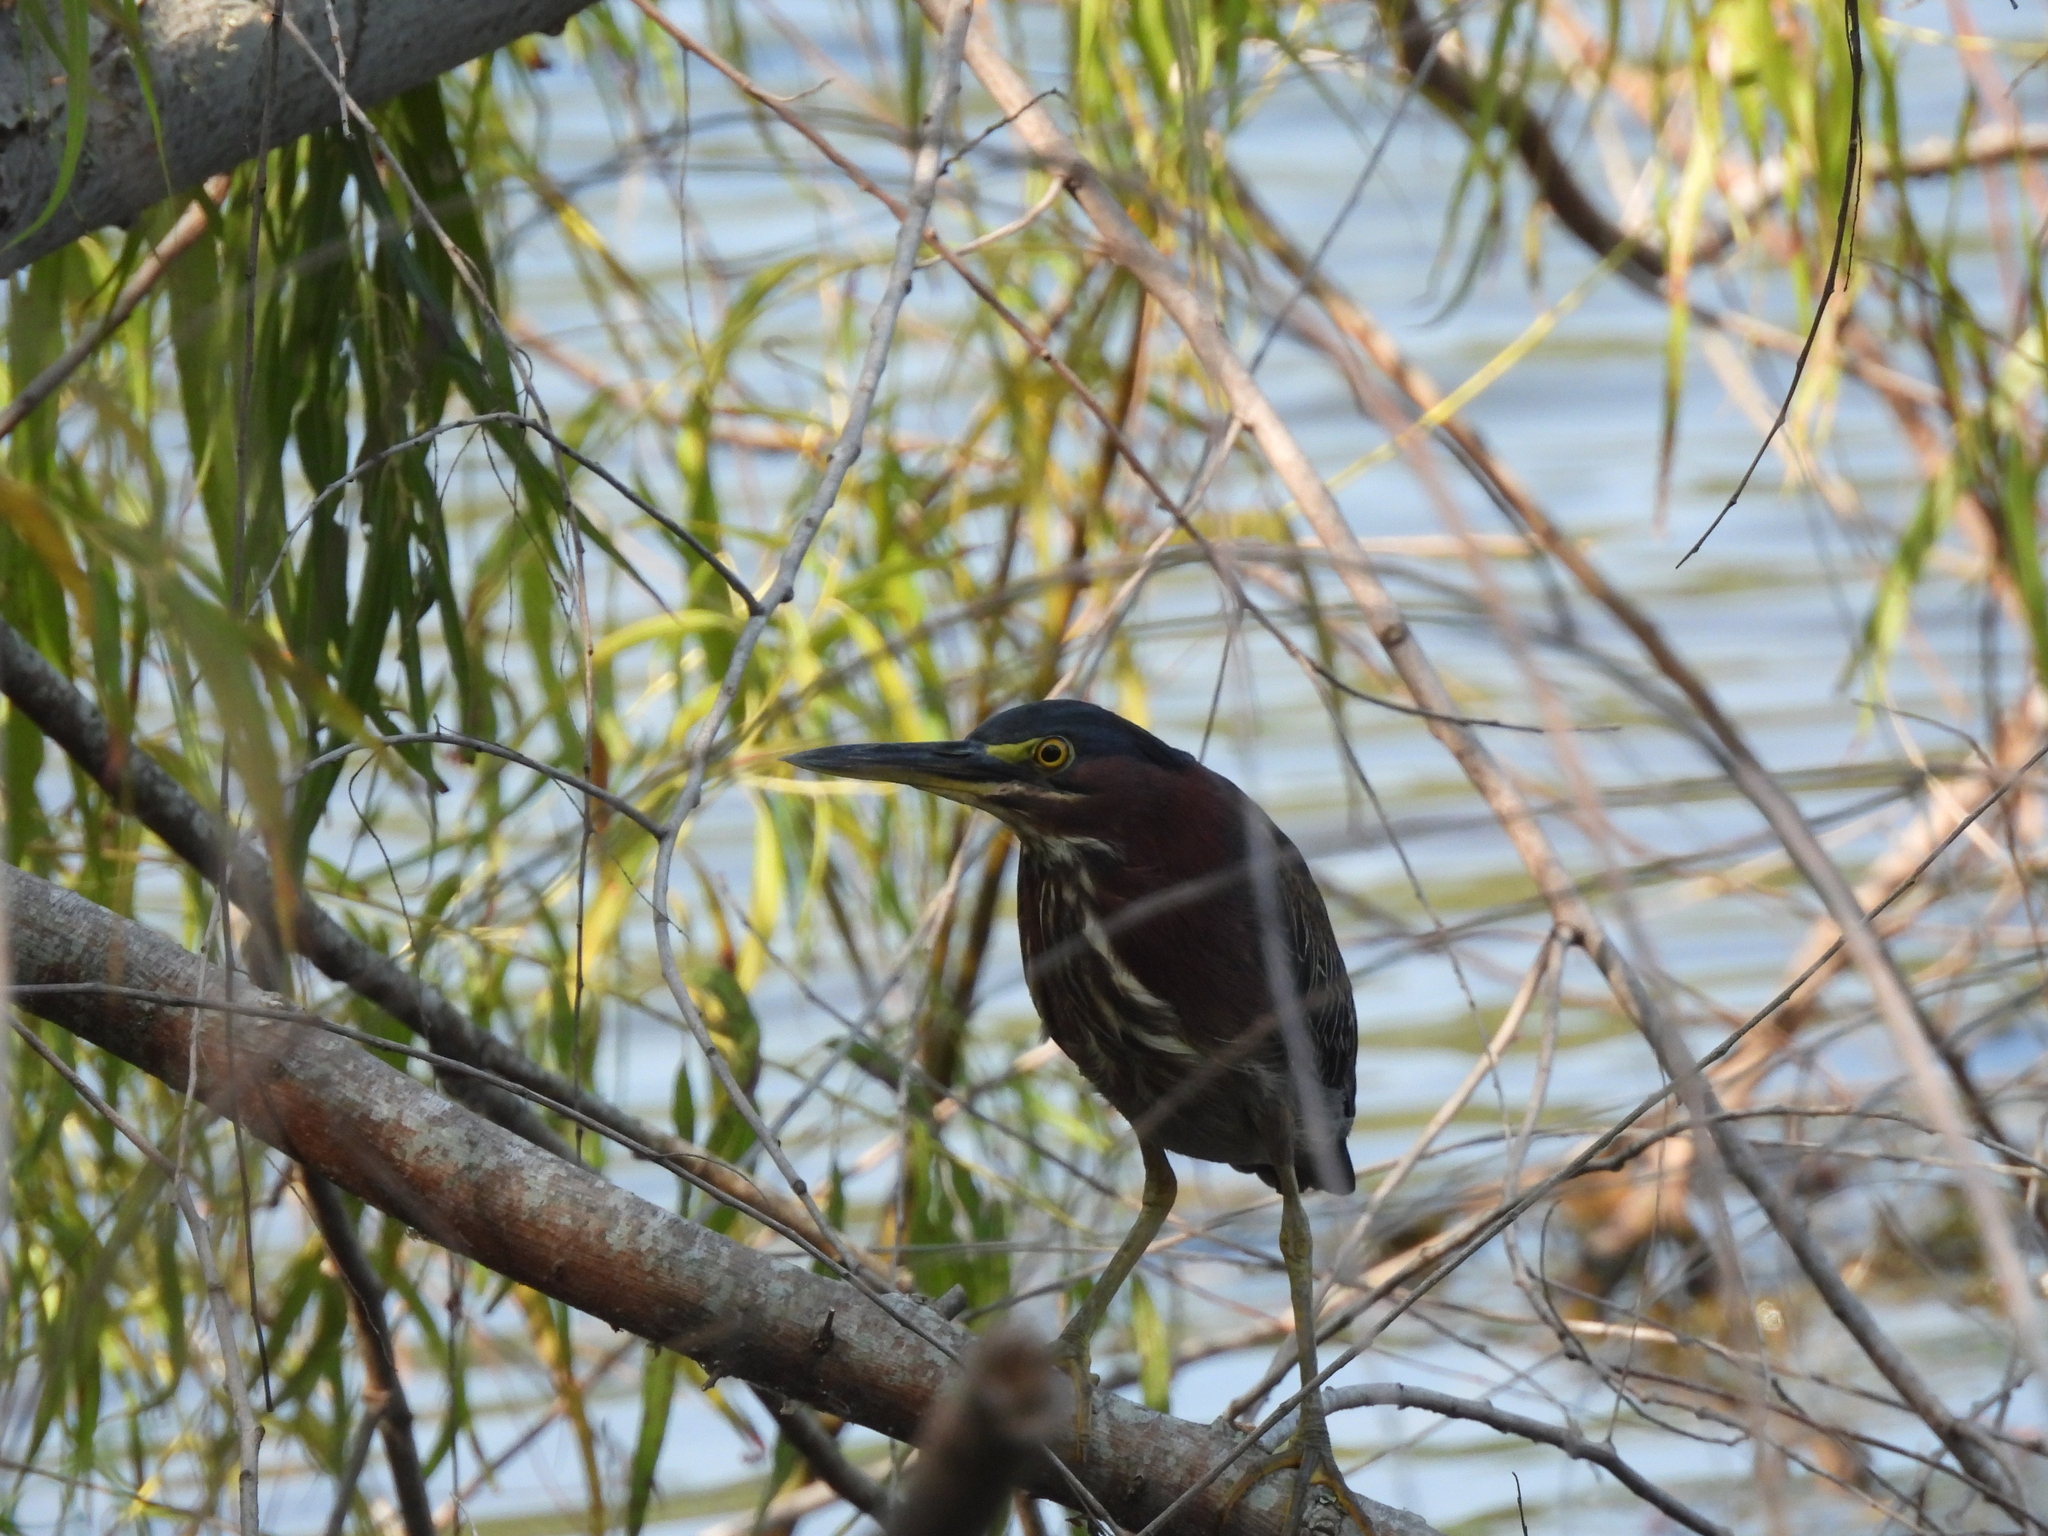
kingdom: Animalia
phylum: Chordata
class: Aves
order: Pelecaniformes
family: Ardeidae
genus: Butorides
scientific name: Butorides virescens
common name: Green heron
